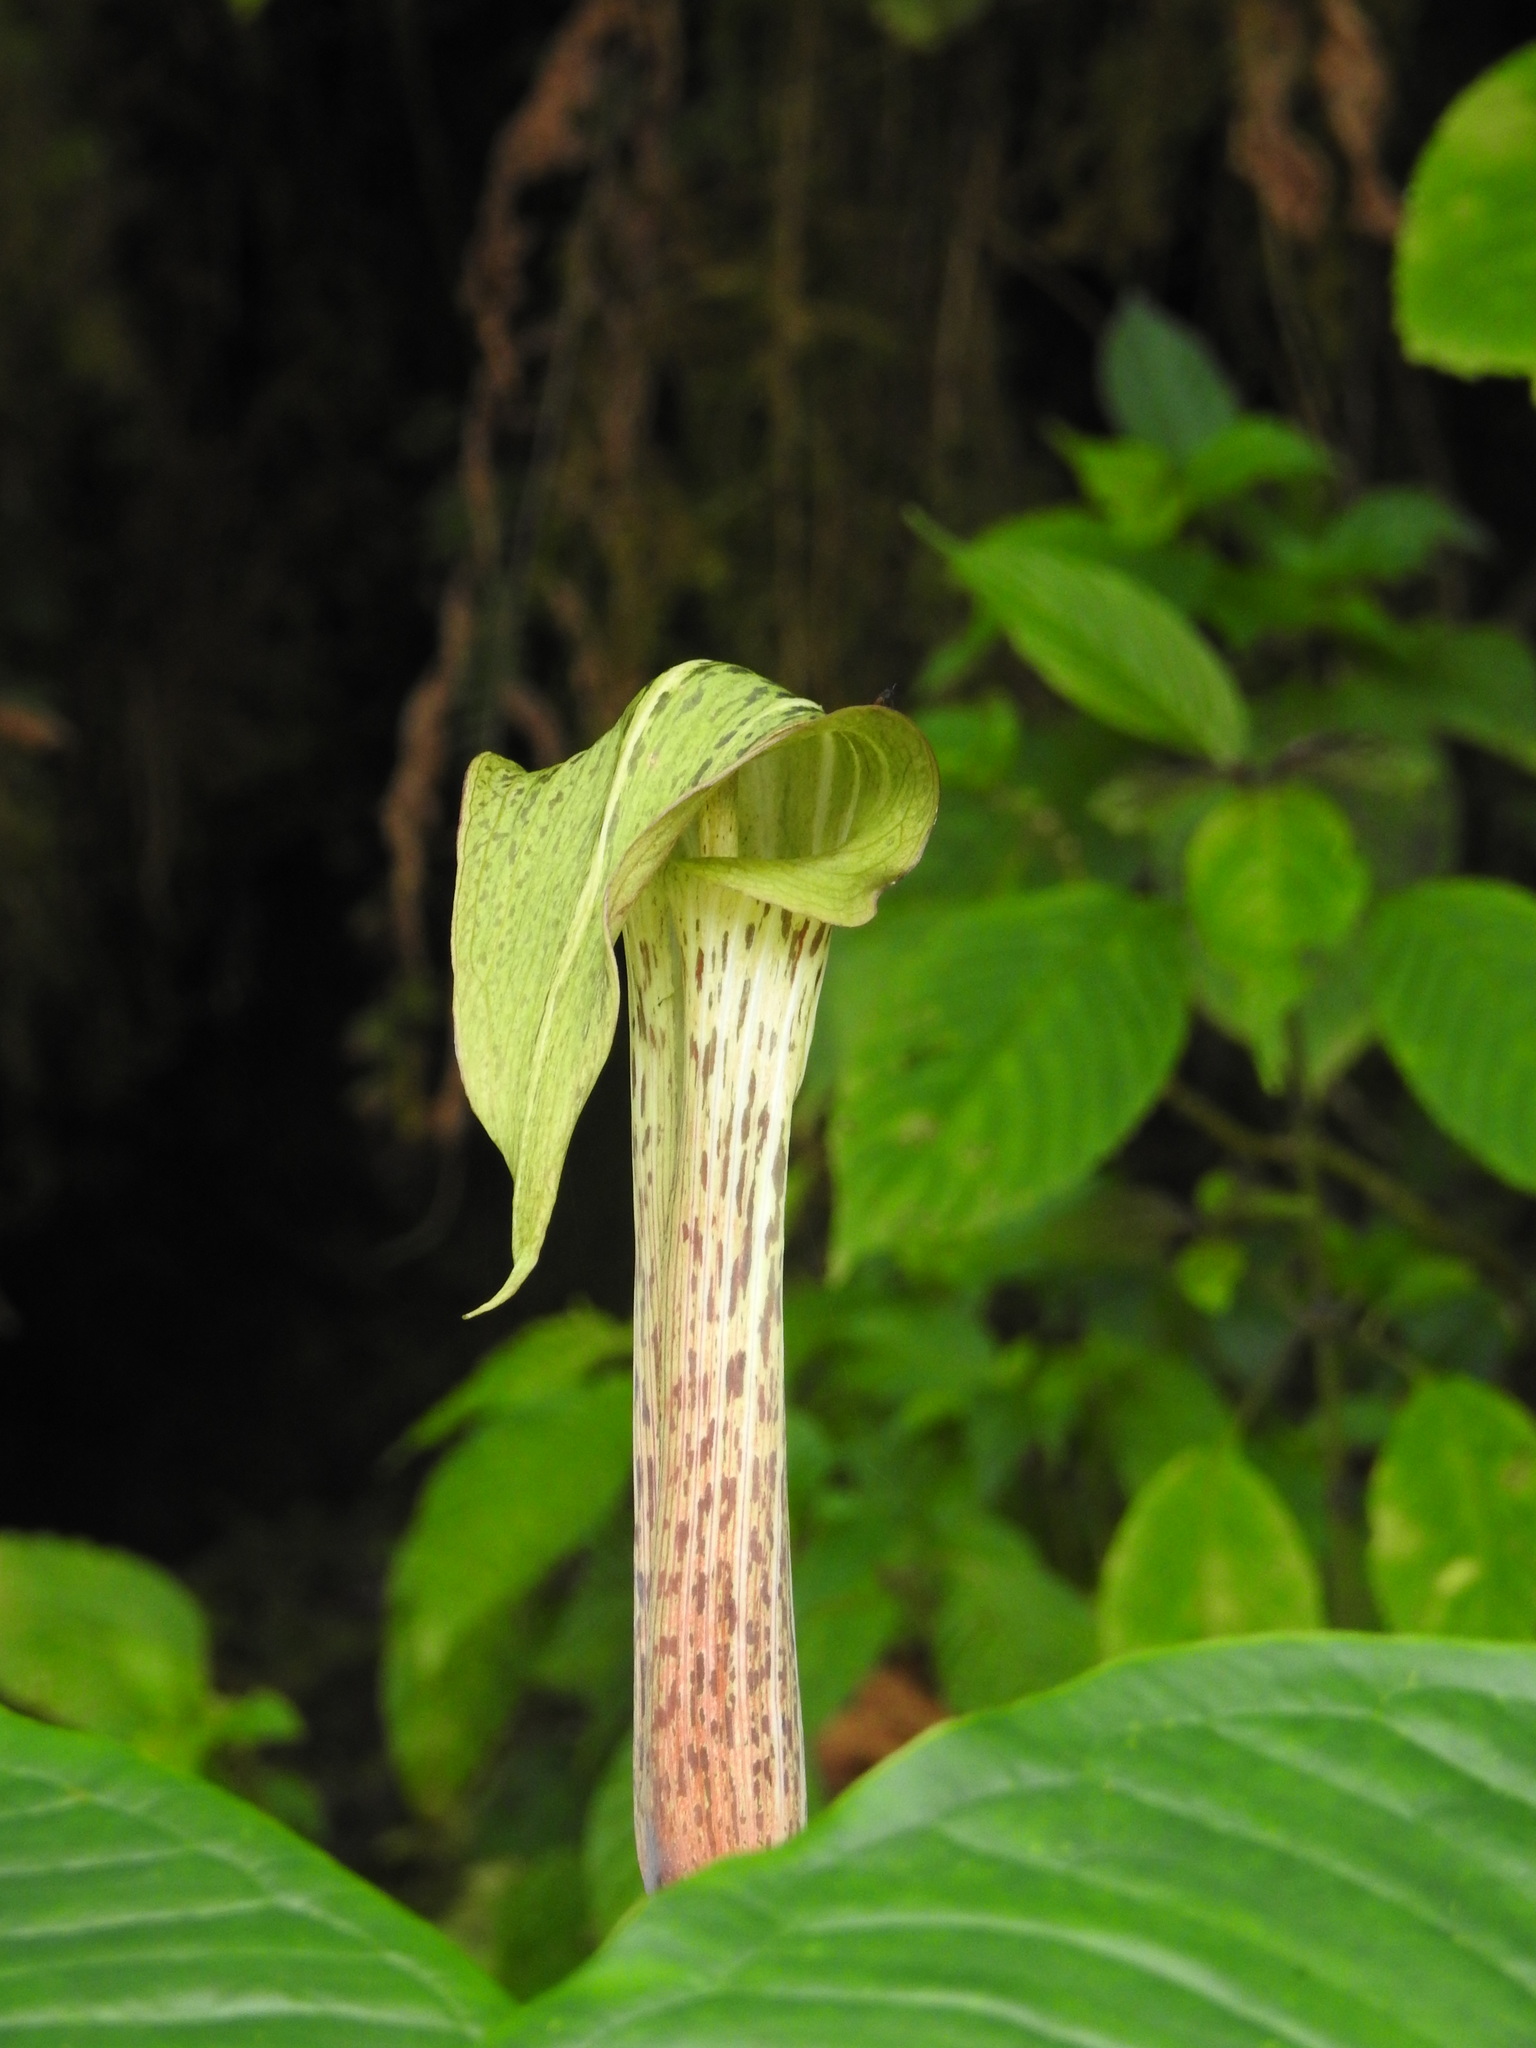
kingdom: Plantae
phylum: Tracheophyta
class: Liliopsida
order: Alismatales
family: Araceae
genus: Arisaema
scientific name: Arisaema nepenthoides
